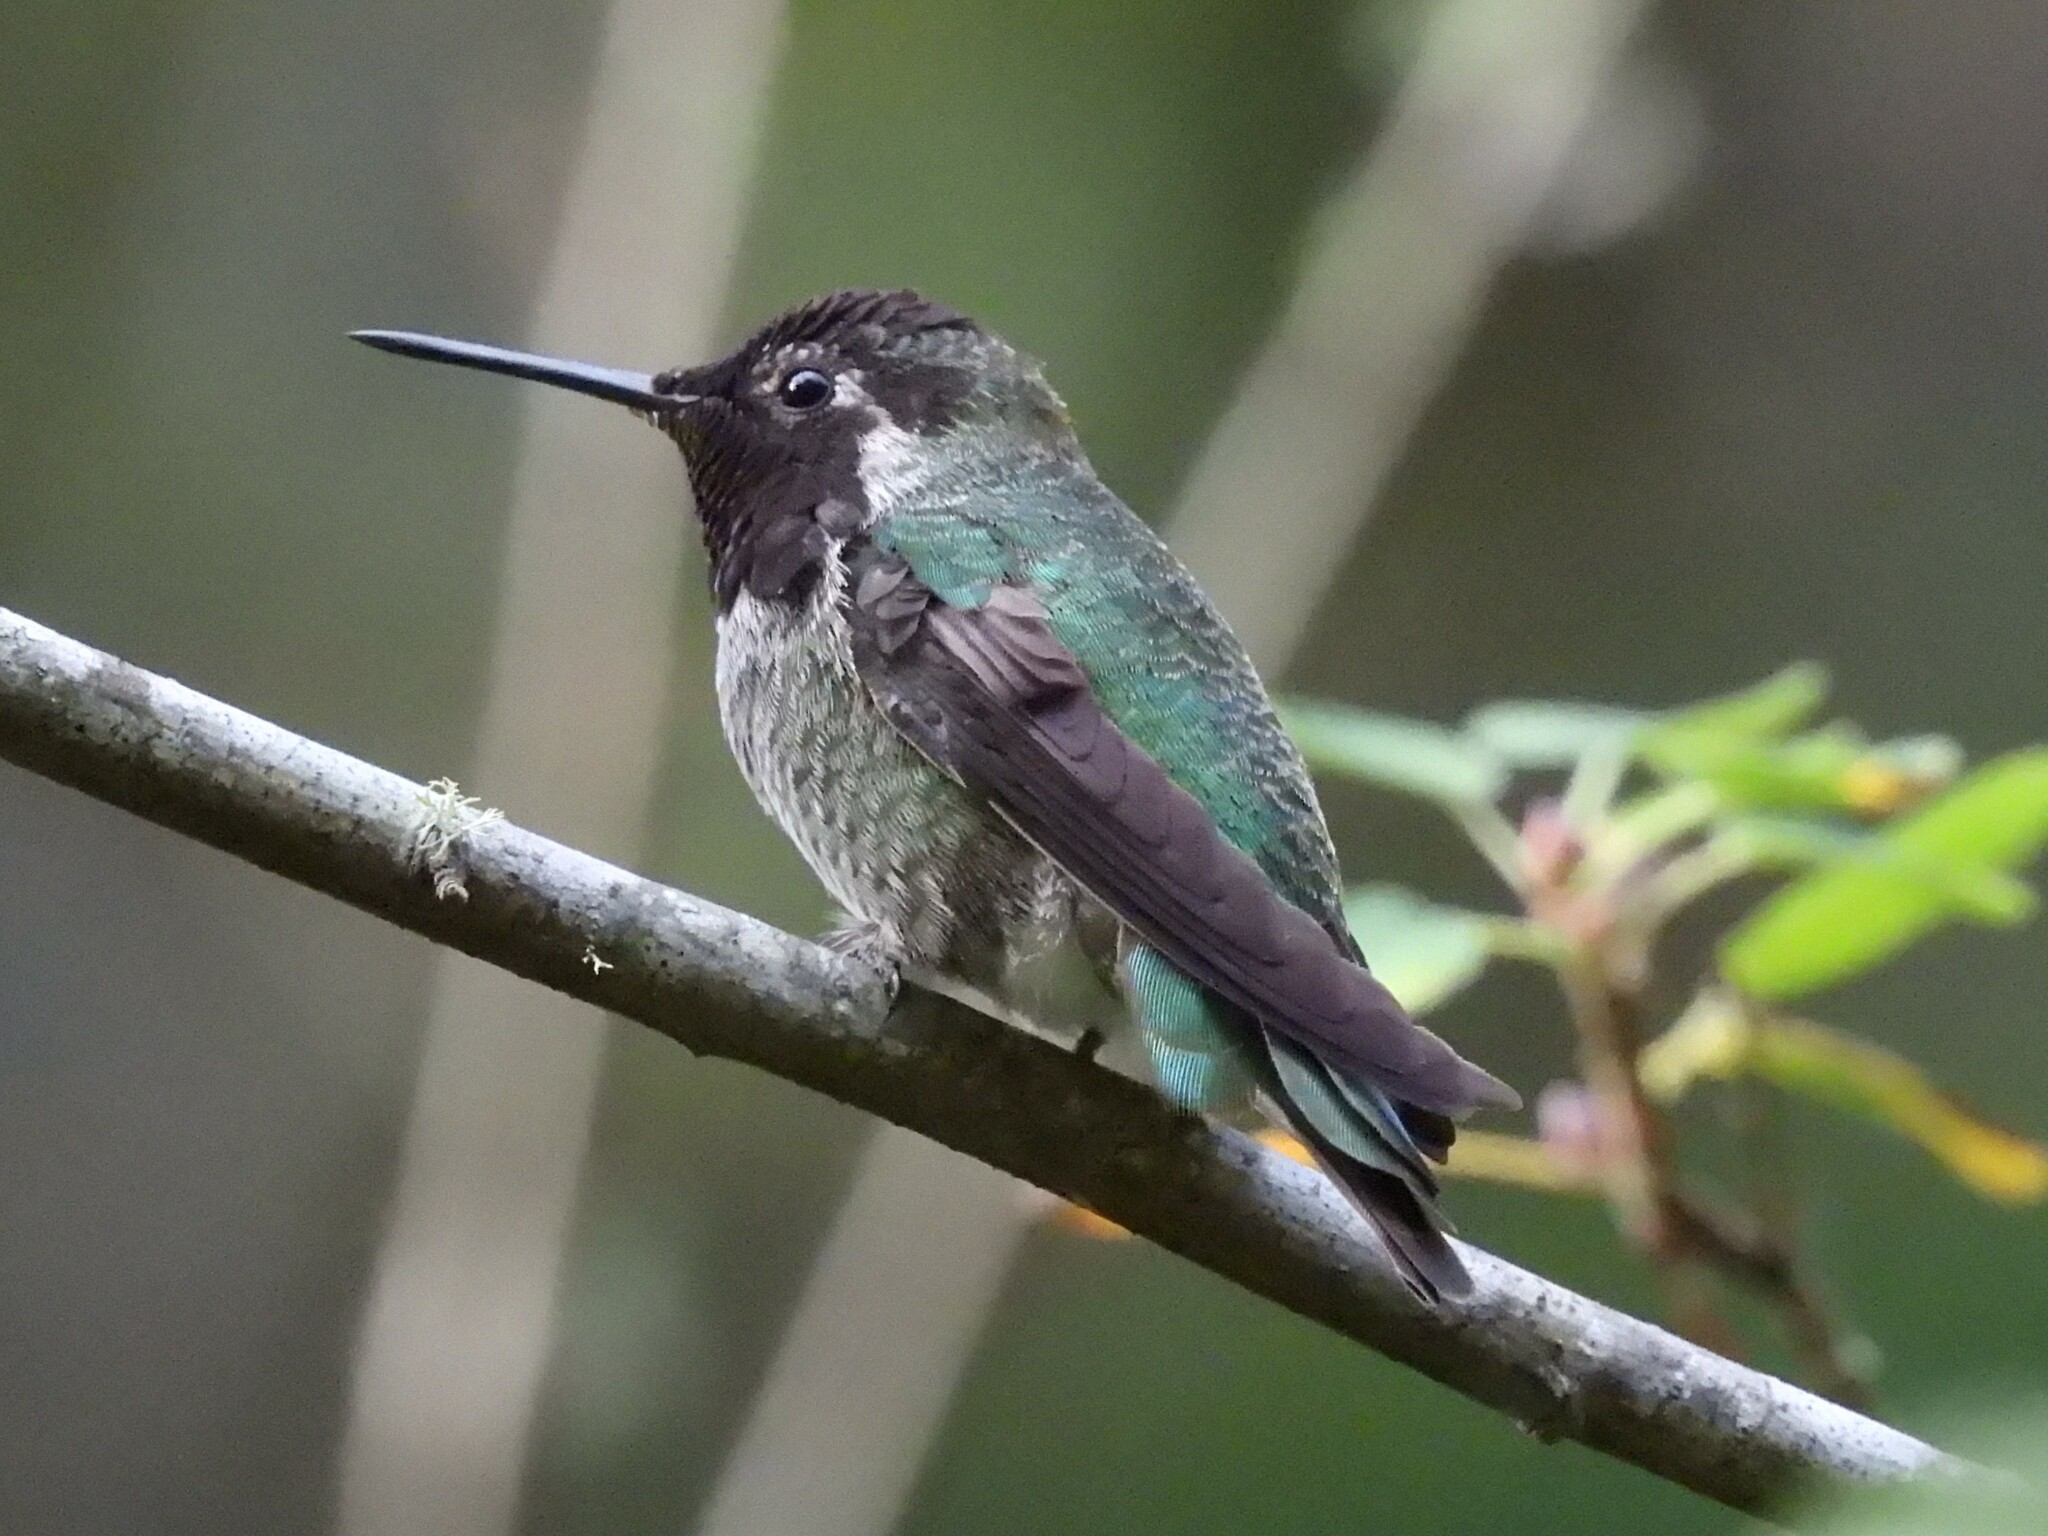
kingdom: Animalia
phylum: Chordata
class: Aves
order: Apodiformes
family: Trochilidae
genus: Calypte
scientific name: Calypte anna
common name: Anna's hummingbird
